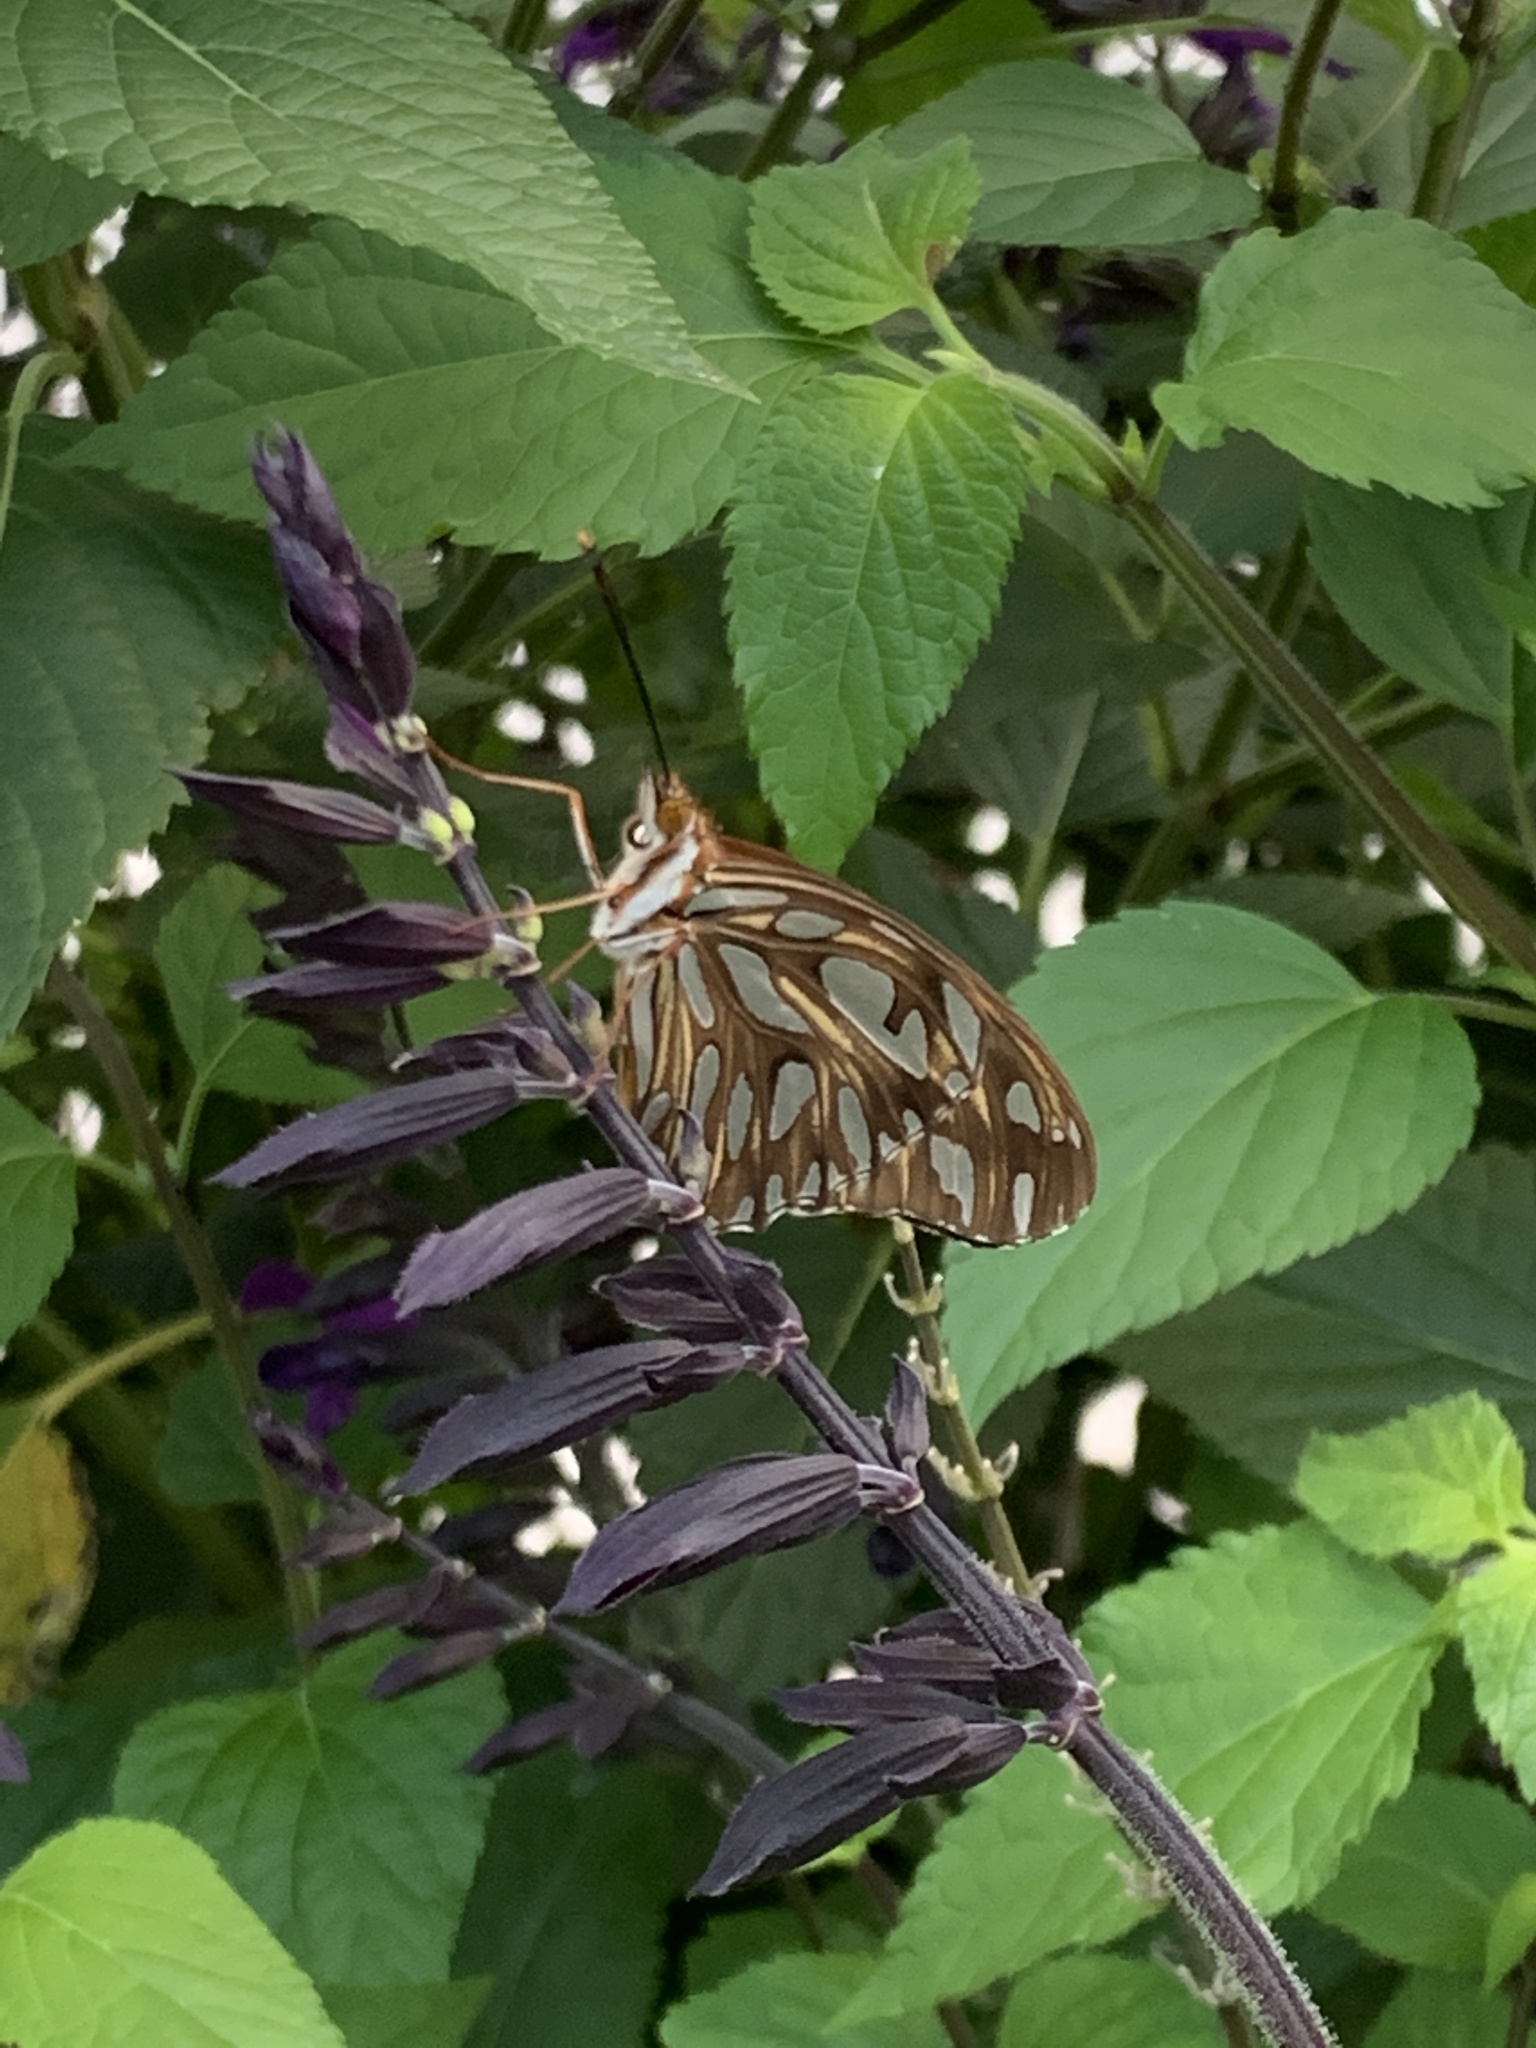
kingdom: Animalia
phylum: Arthropoda
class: Insecta
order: Lepidoptera
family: Nymphalidae
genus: Dione
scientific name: Dione vanillae
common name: Gulf fritillary
